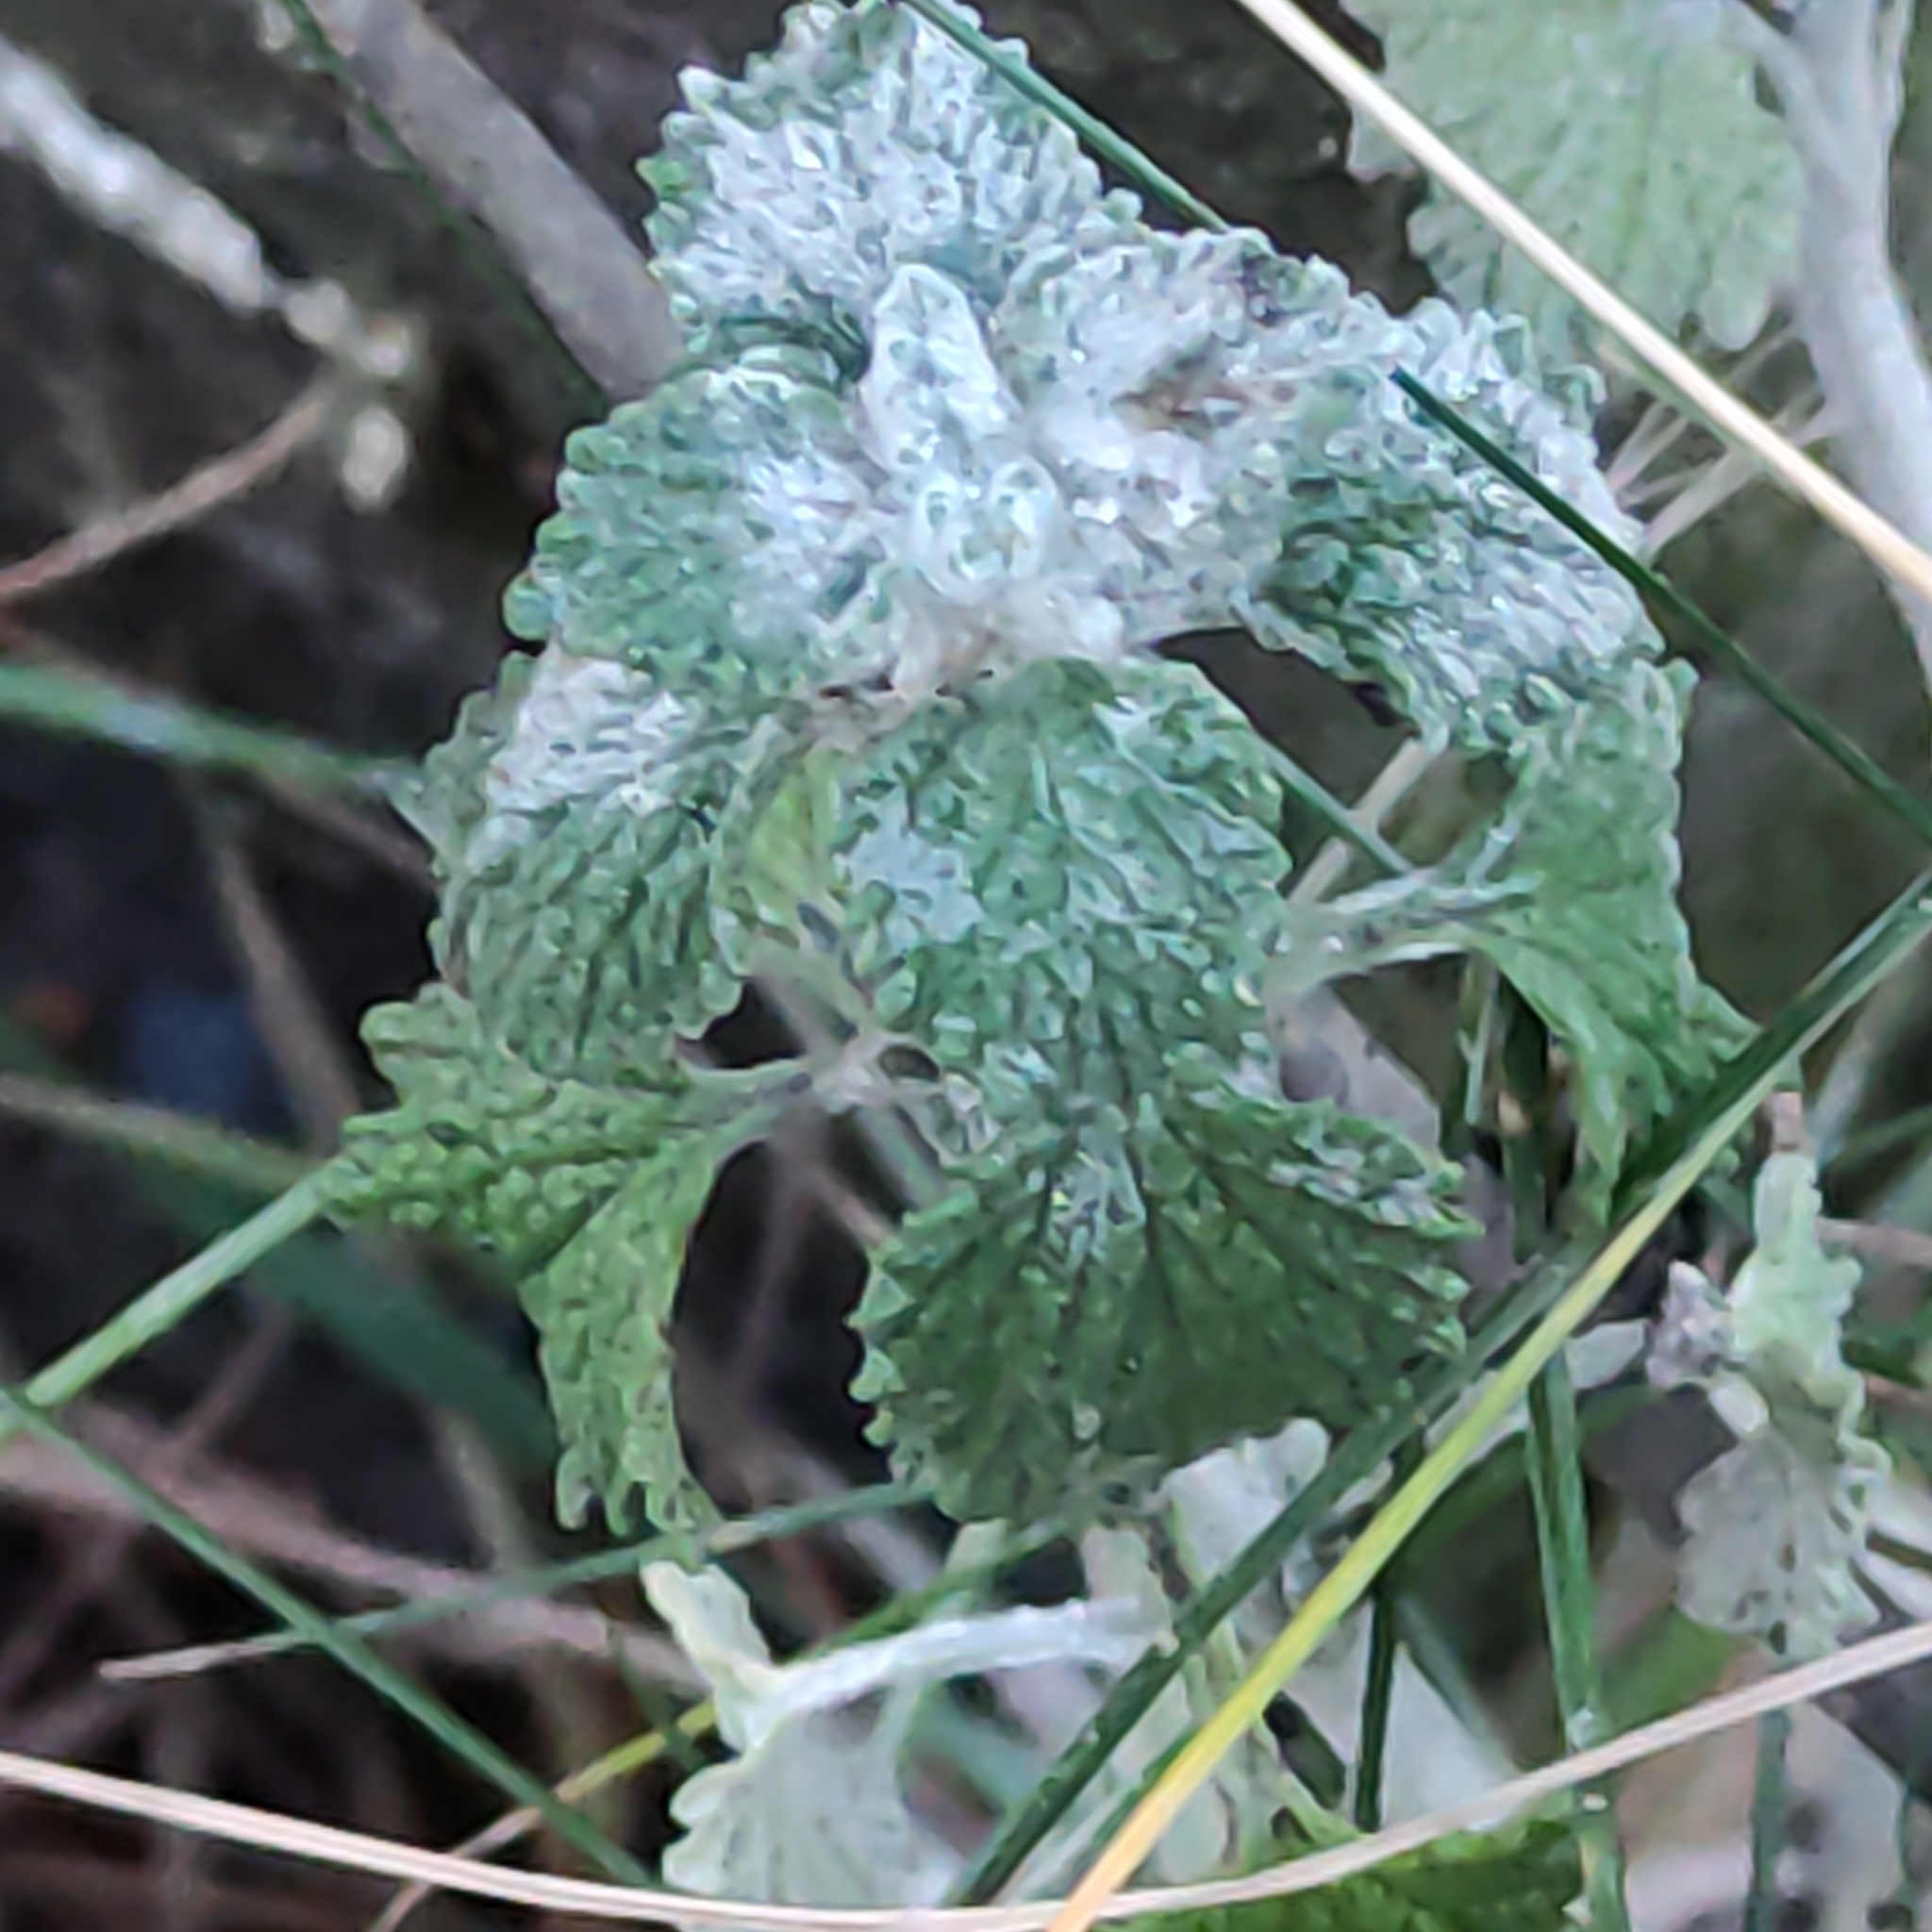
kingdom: Plantae
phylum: Tracheophyta
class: Magnoliopsida
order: Lamiales
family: Lamiaceae
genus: Marrubium
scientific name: Marrubium vulgare
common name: Horehound
